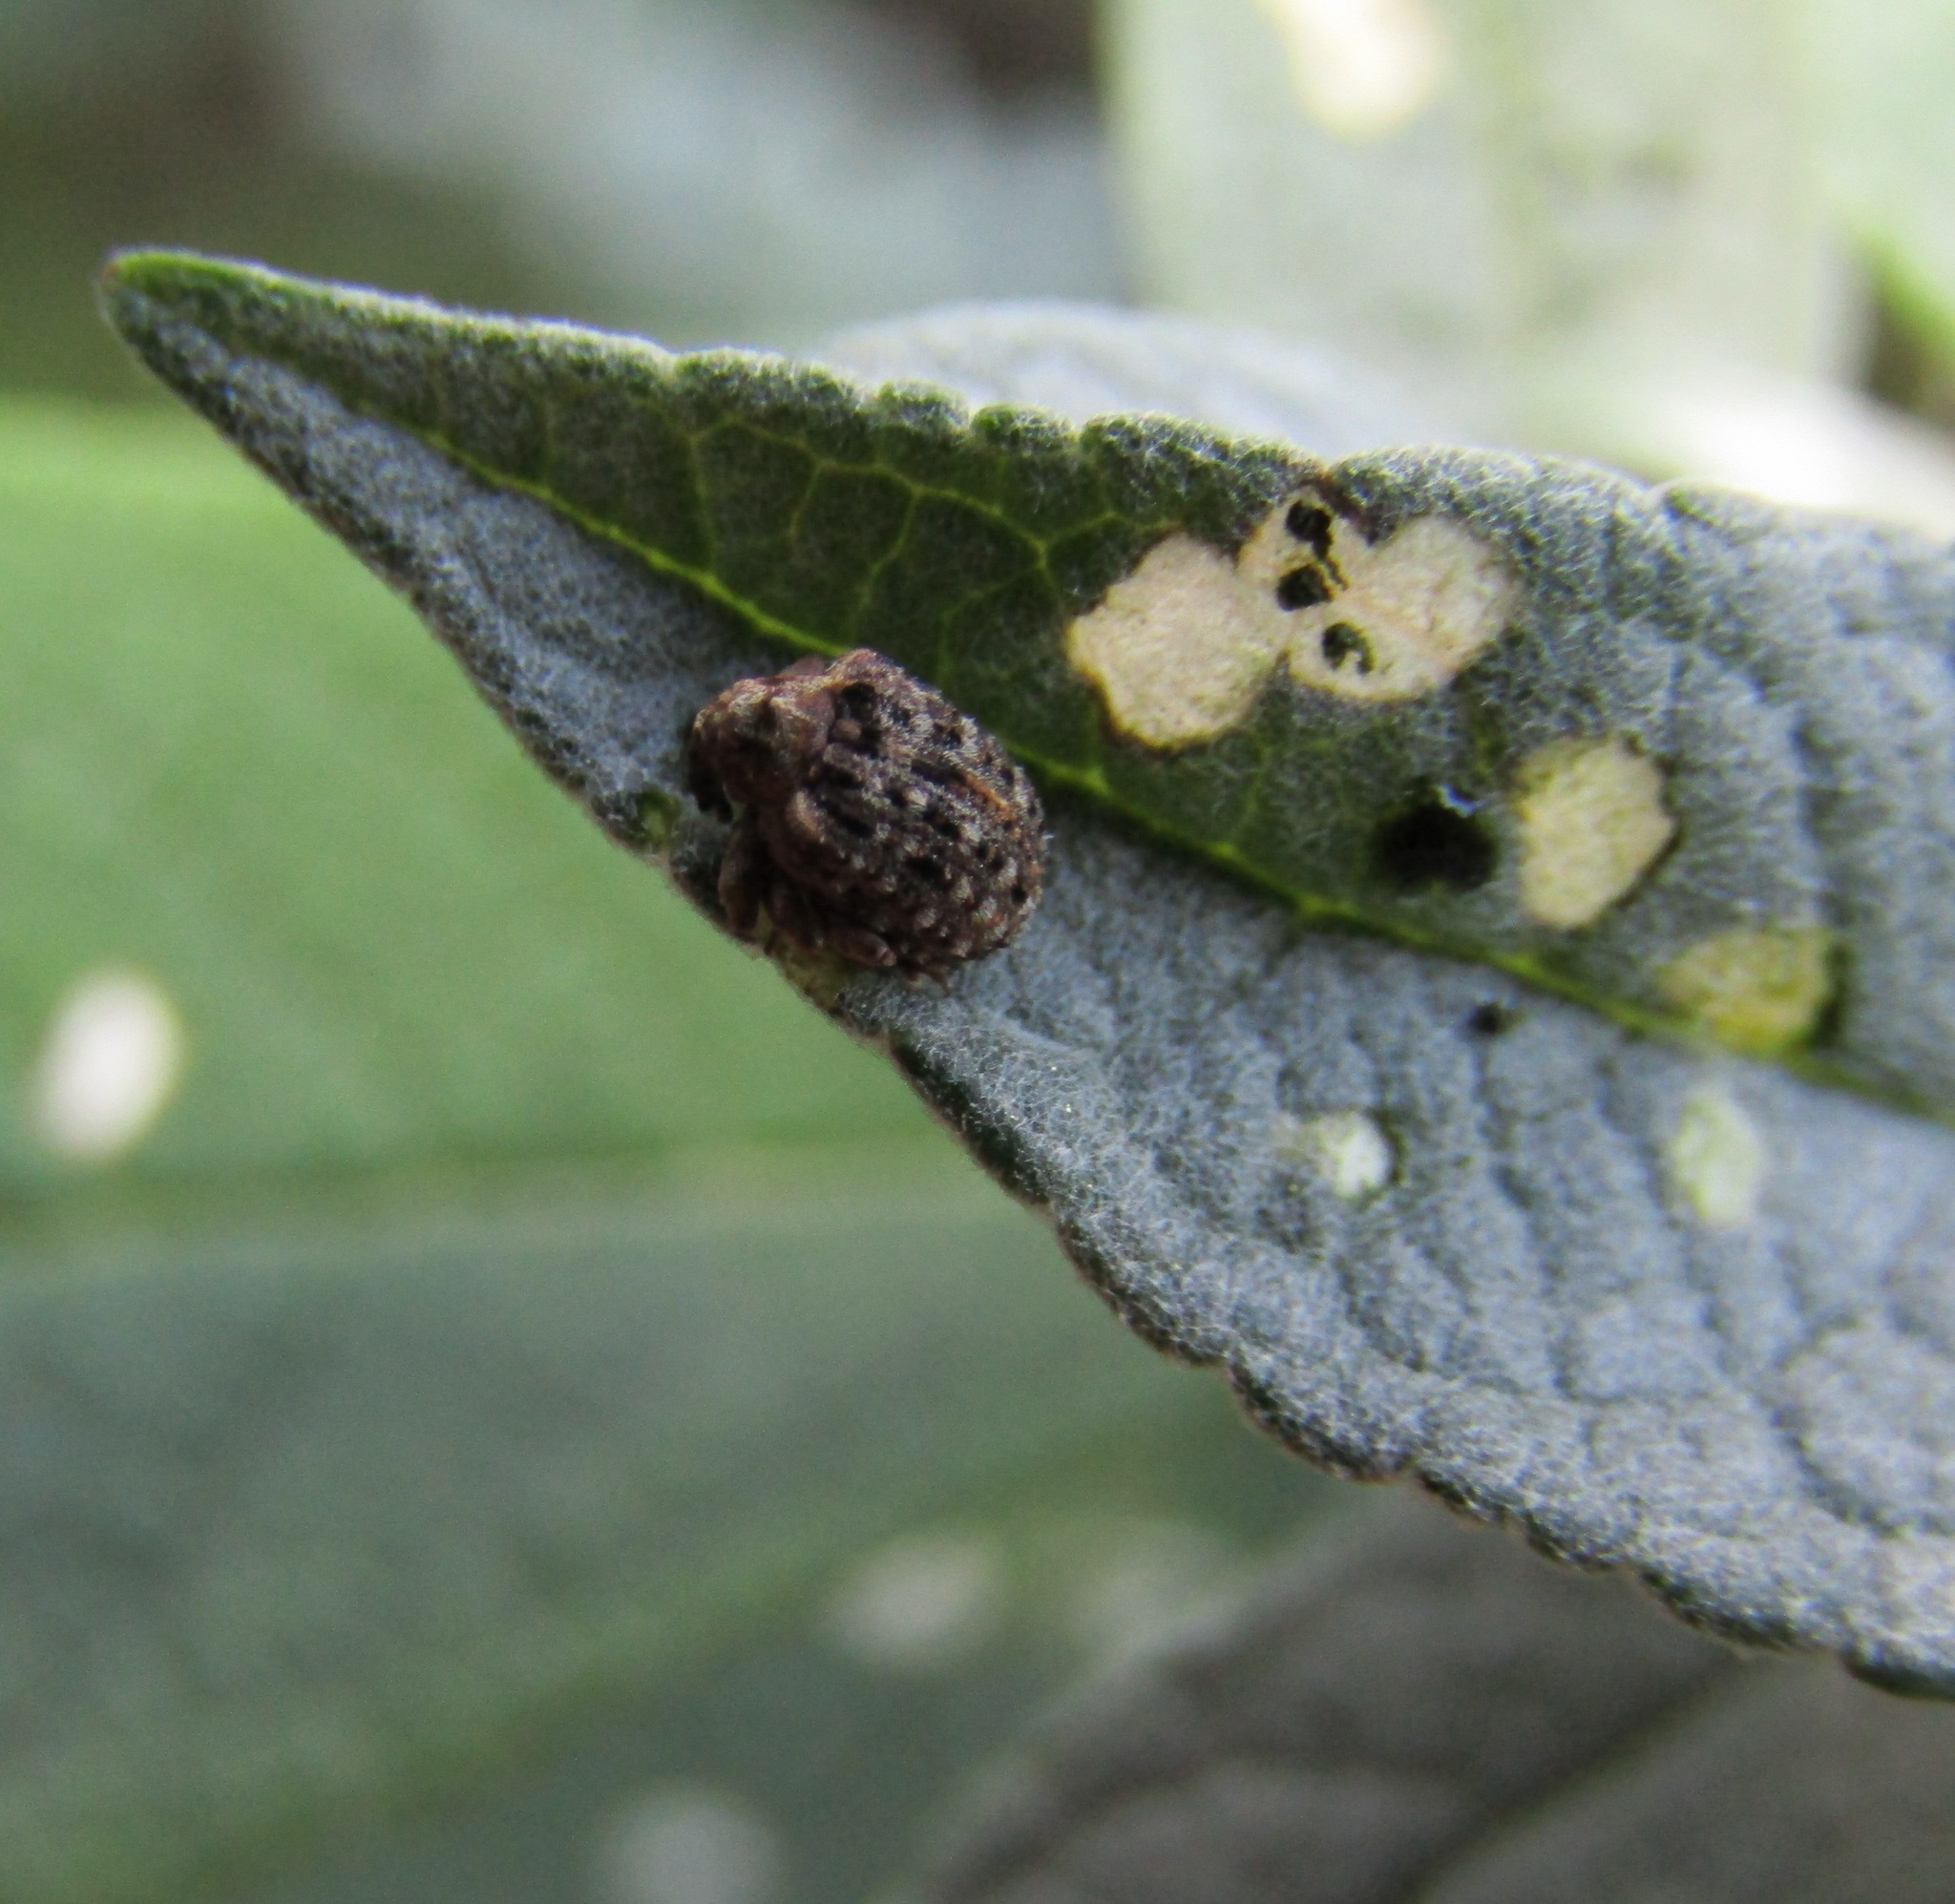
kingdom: Animalia
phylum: Arthropoda
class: Insecta
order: Coleoptera
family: Curculionidae
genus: Cleopus
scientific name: Cleopus japonicus
